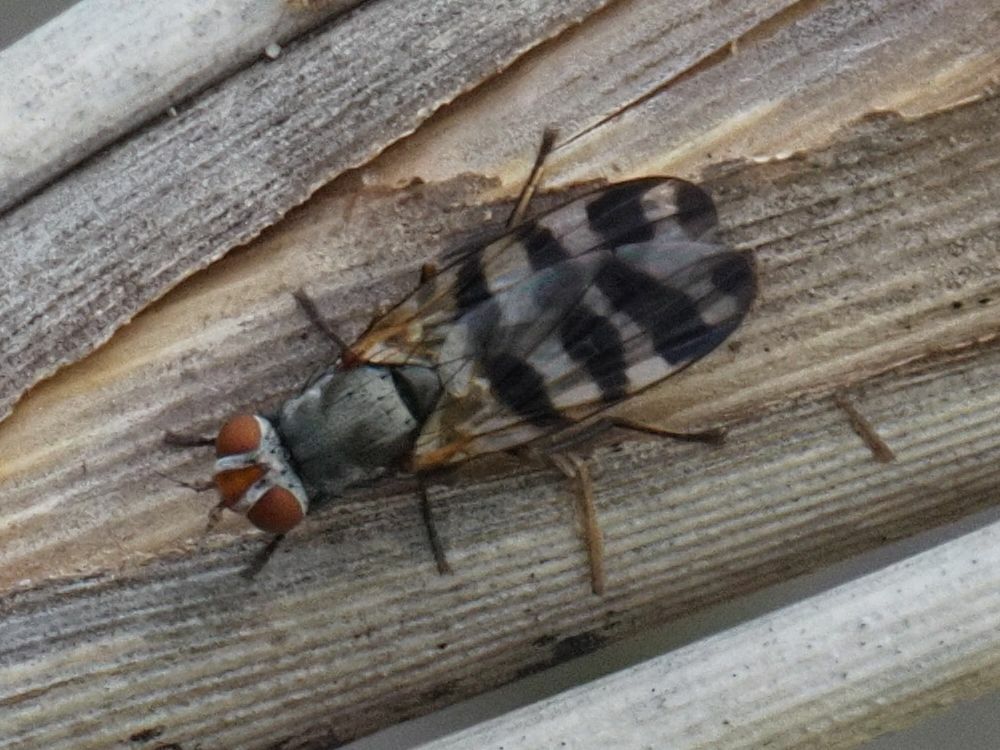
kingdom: Animalia
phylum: Arthropoda
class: Insecta
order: Diptera
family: Ulidiidae
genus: Ceroxys
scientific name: Ceroxys urticae
